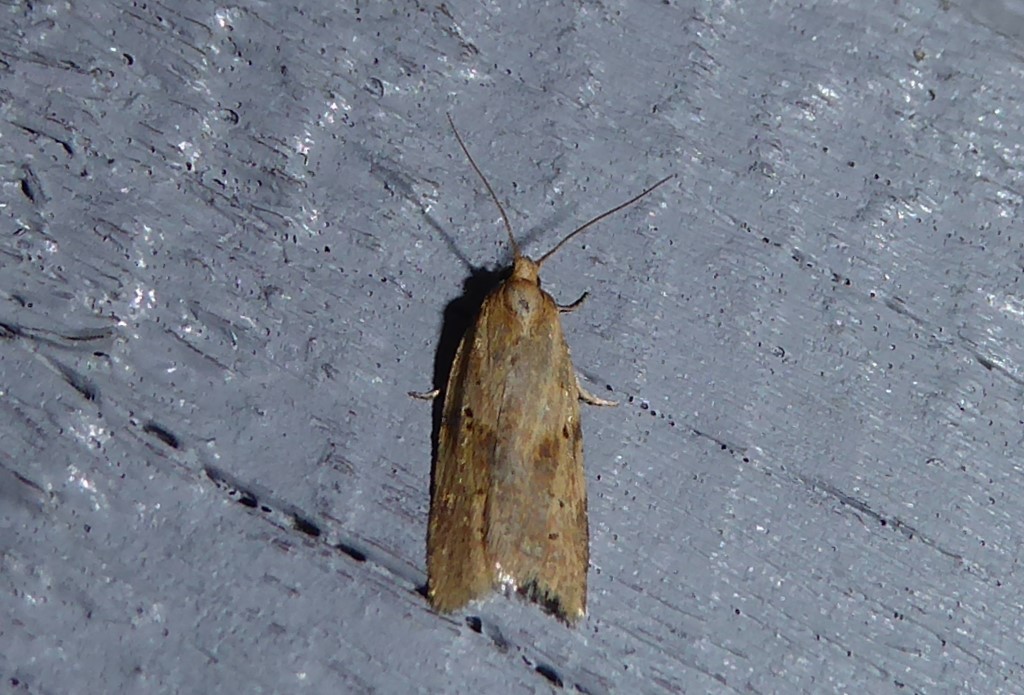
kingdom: Animalia
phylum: Arthropoda
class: Insecta
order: Lepidoptera
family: Tortricidae
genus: Clepsis
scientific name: Clepsis
